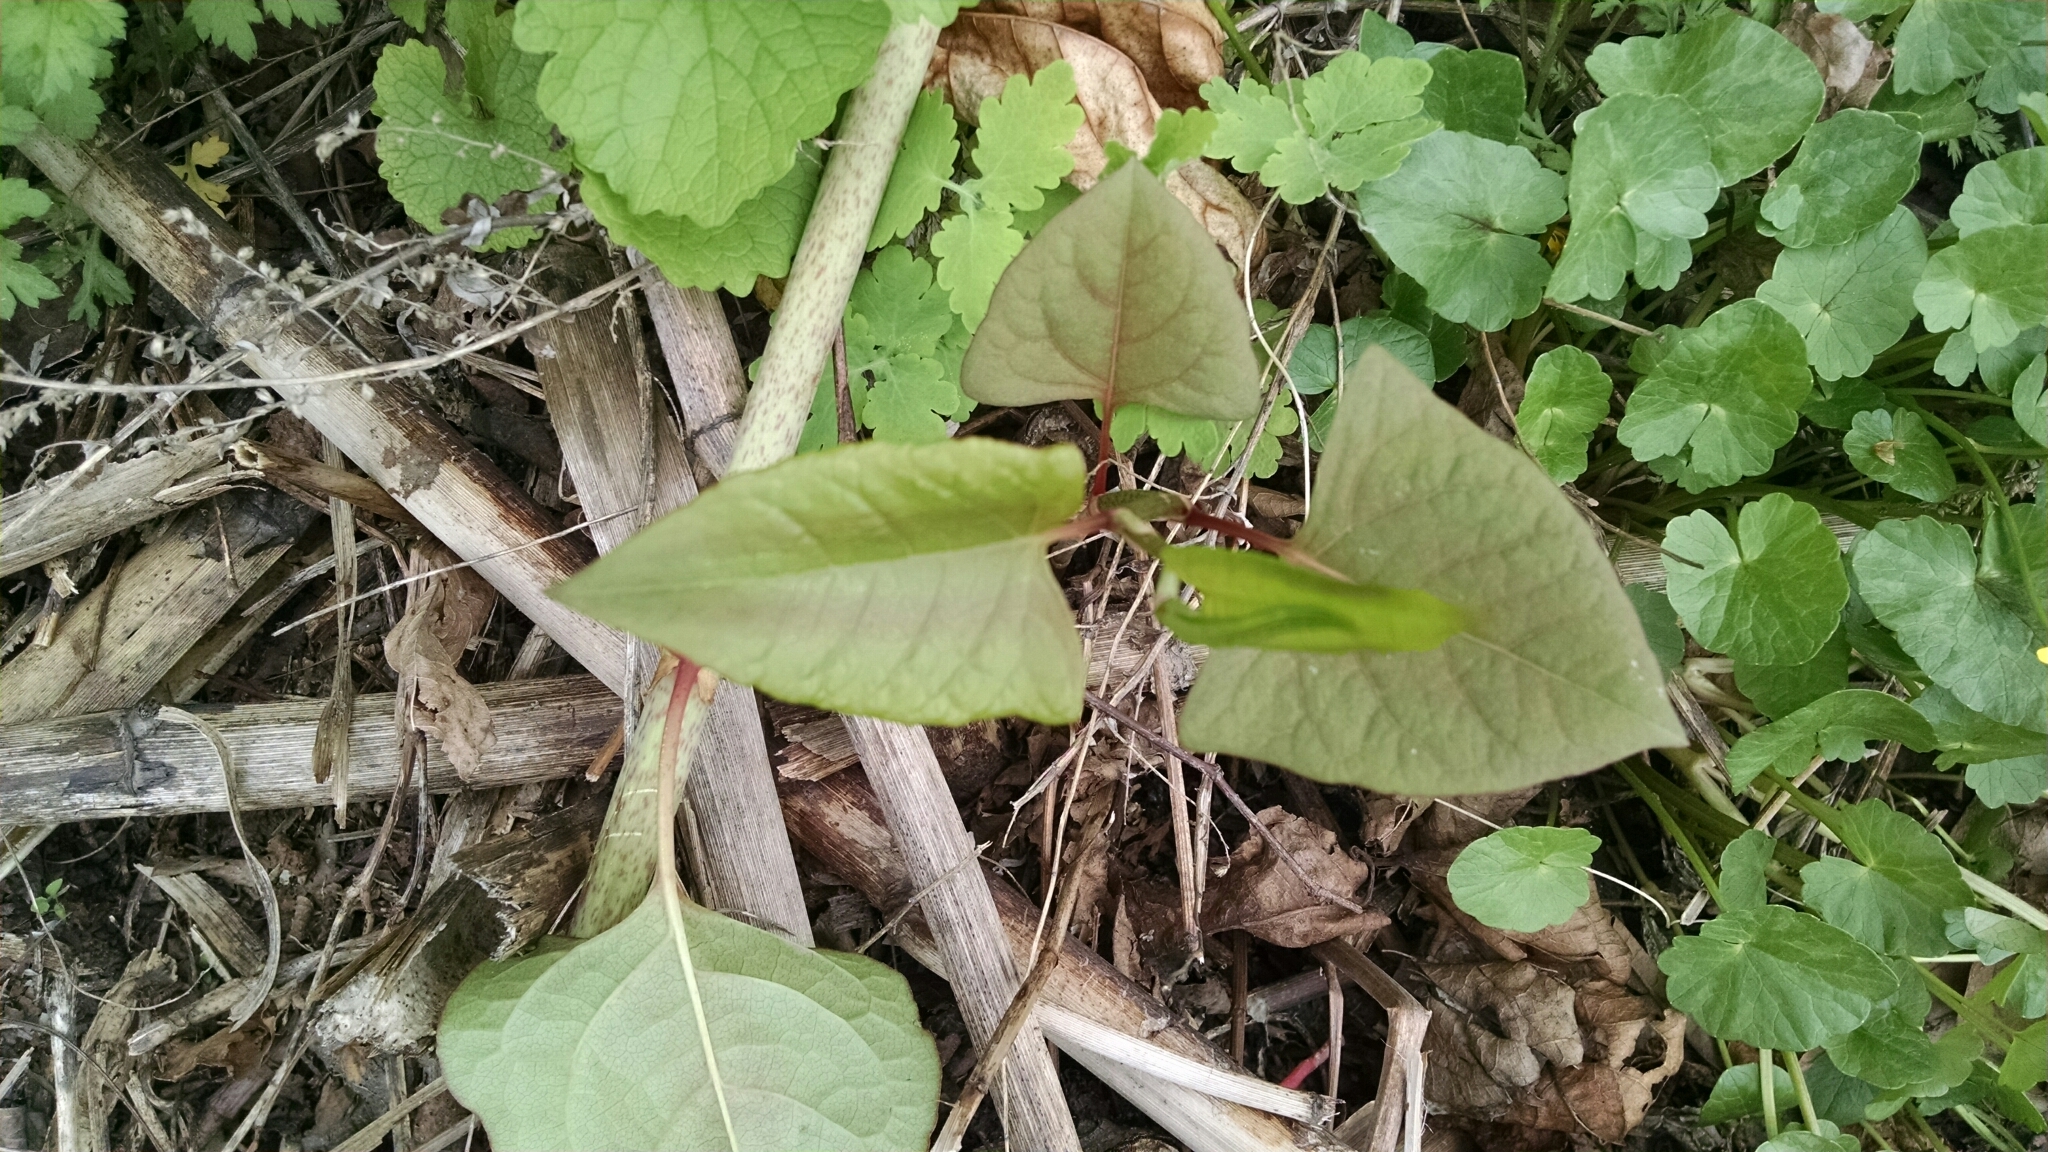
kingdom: Plantae
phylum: Tracheophyta
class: Magnoliopsida
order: Caryophyllales
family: Polygonaceae
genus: Reynoutria
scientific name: Reynoutria japonica
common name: Japanese knotweed
